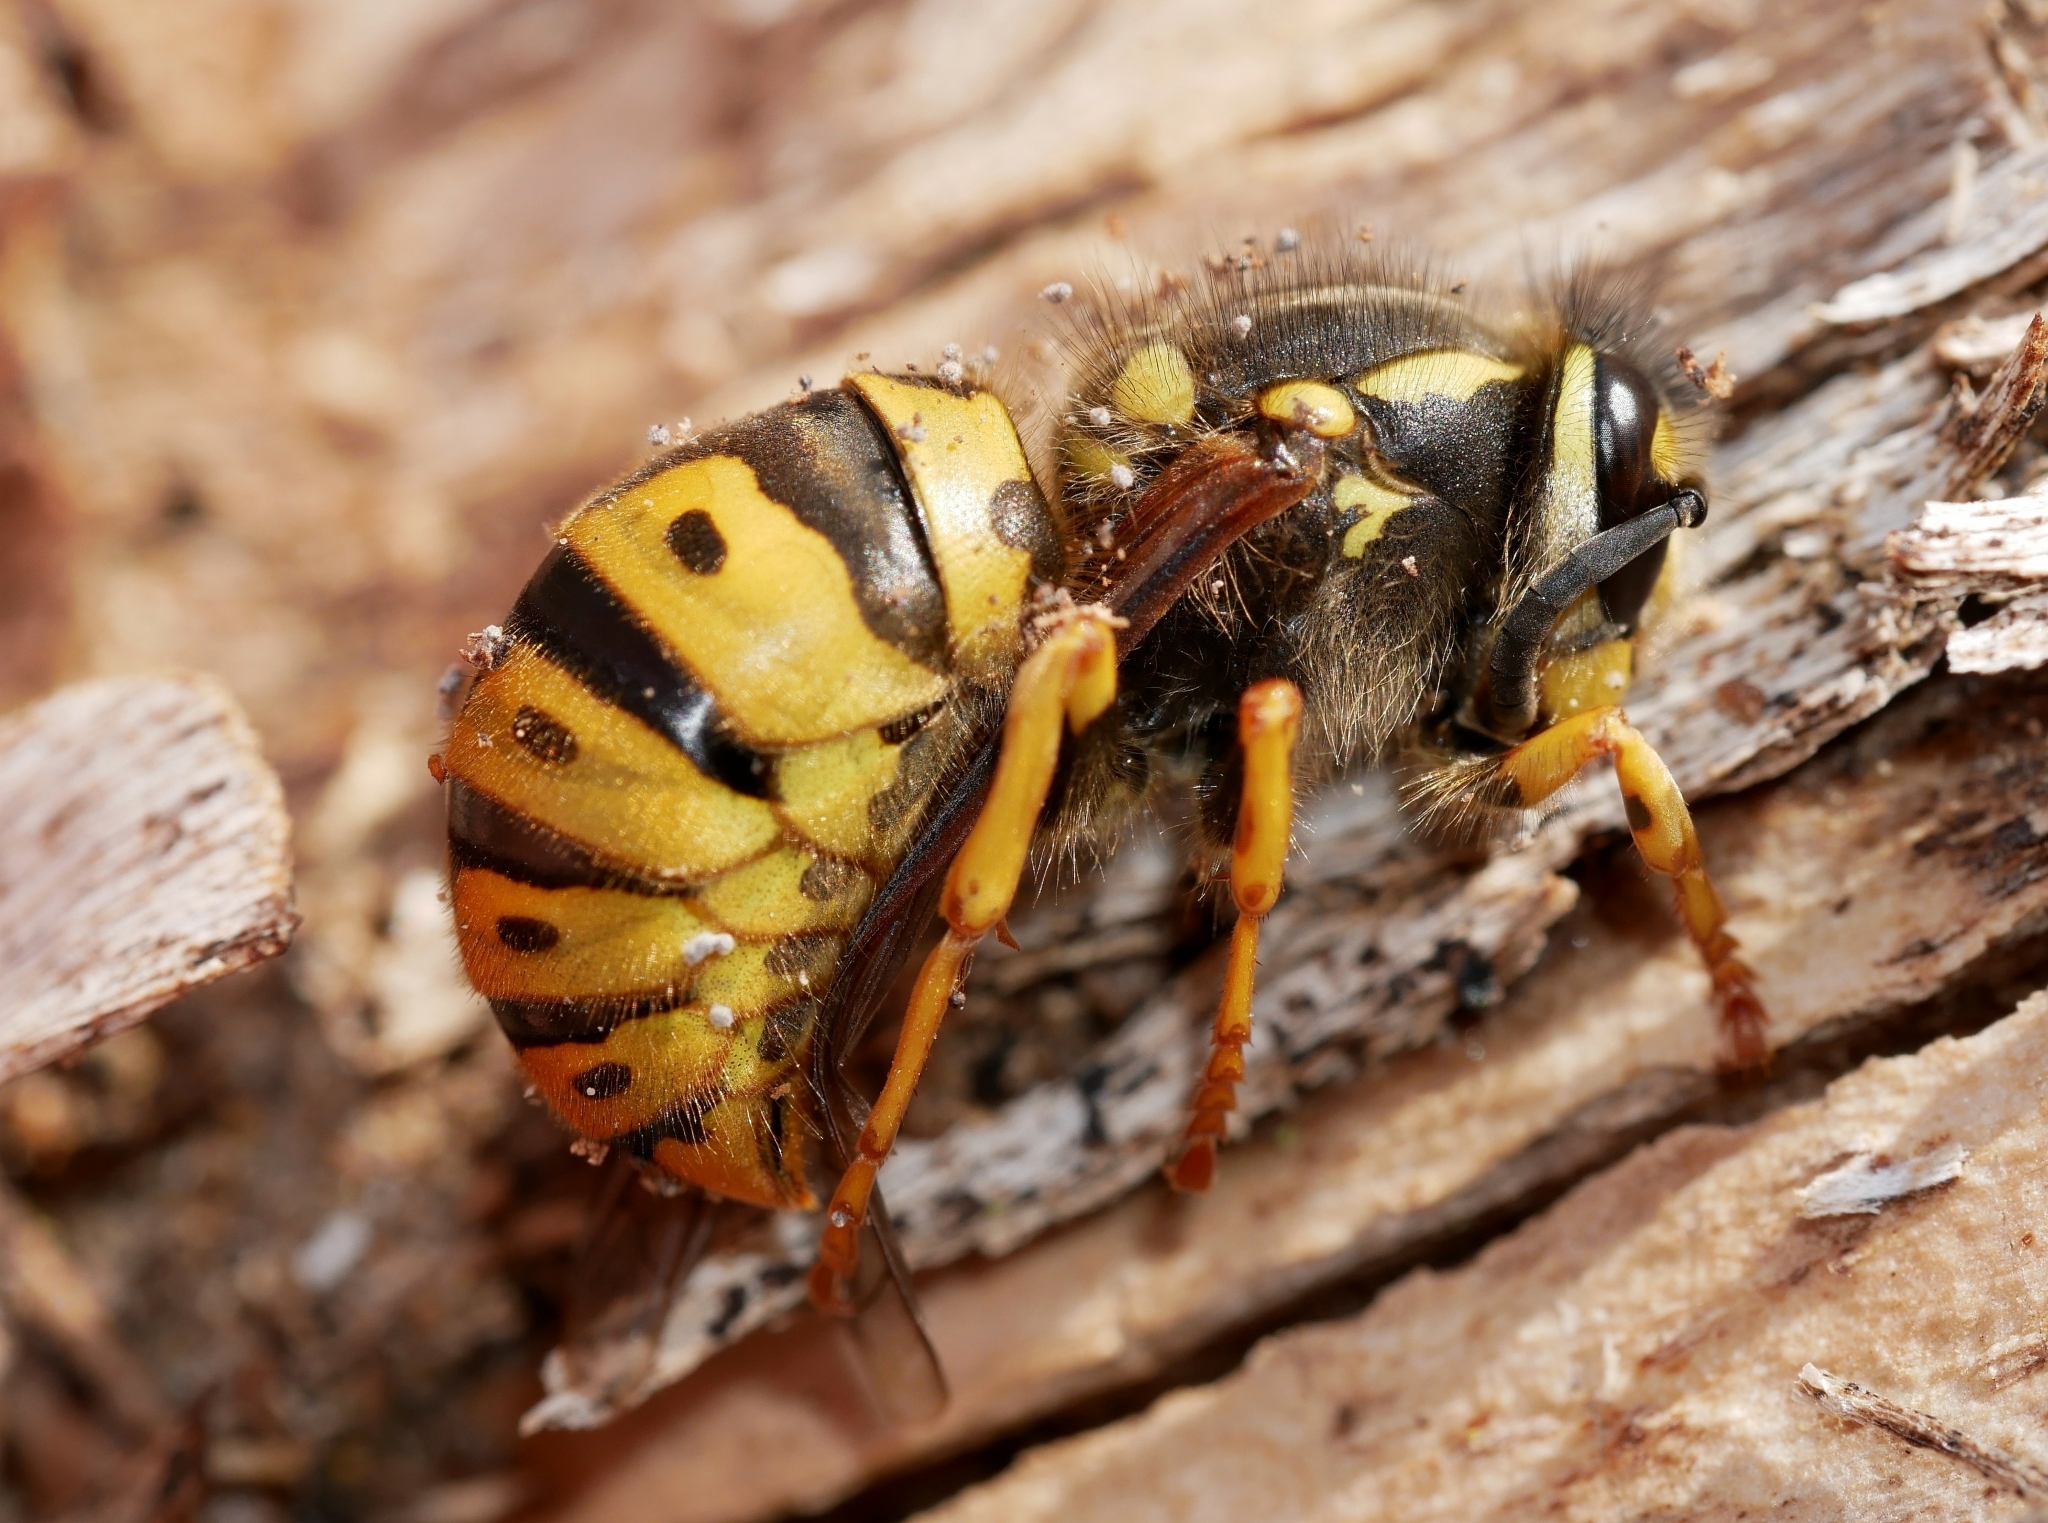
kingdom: Animalia
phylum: Arthropoda
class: Insecta
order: Hymenoptera
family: Vespidae
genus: Vespula
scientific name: Vespula germanica
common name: German wasp
